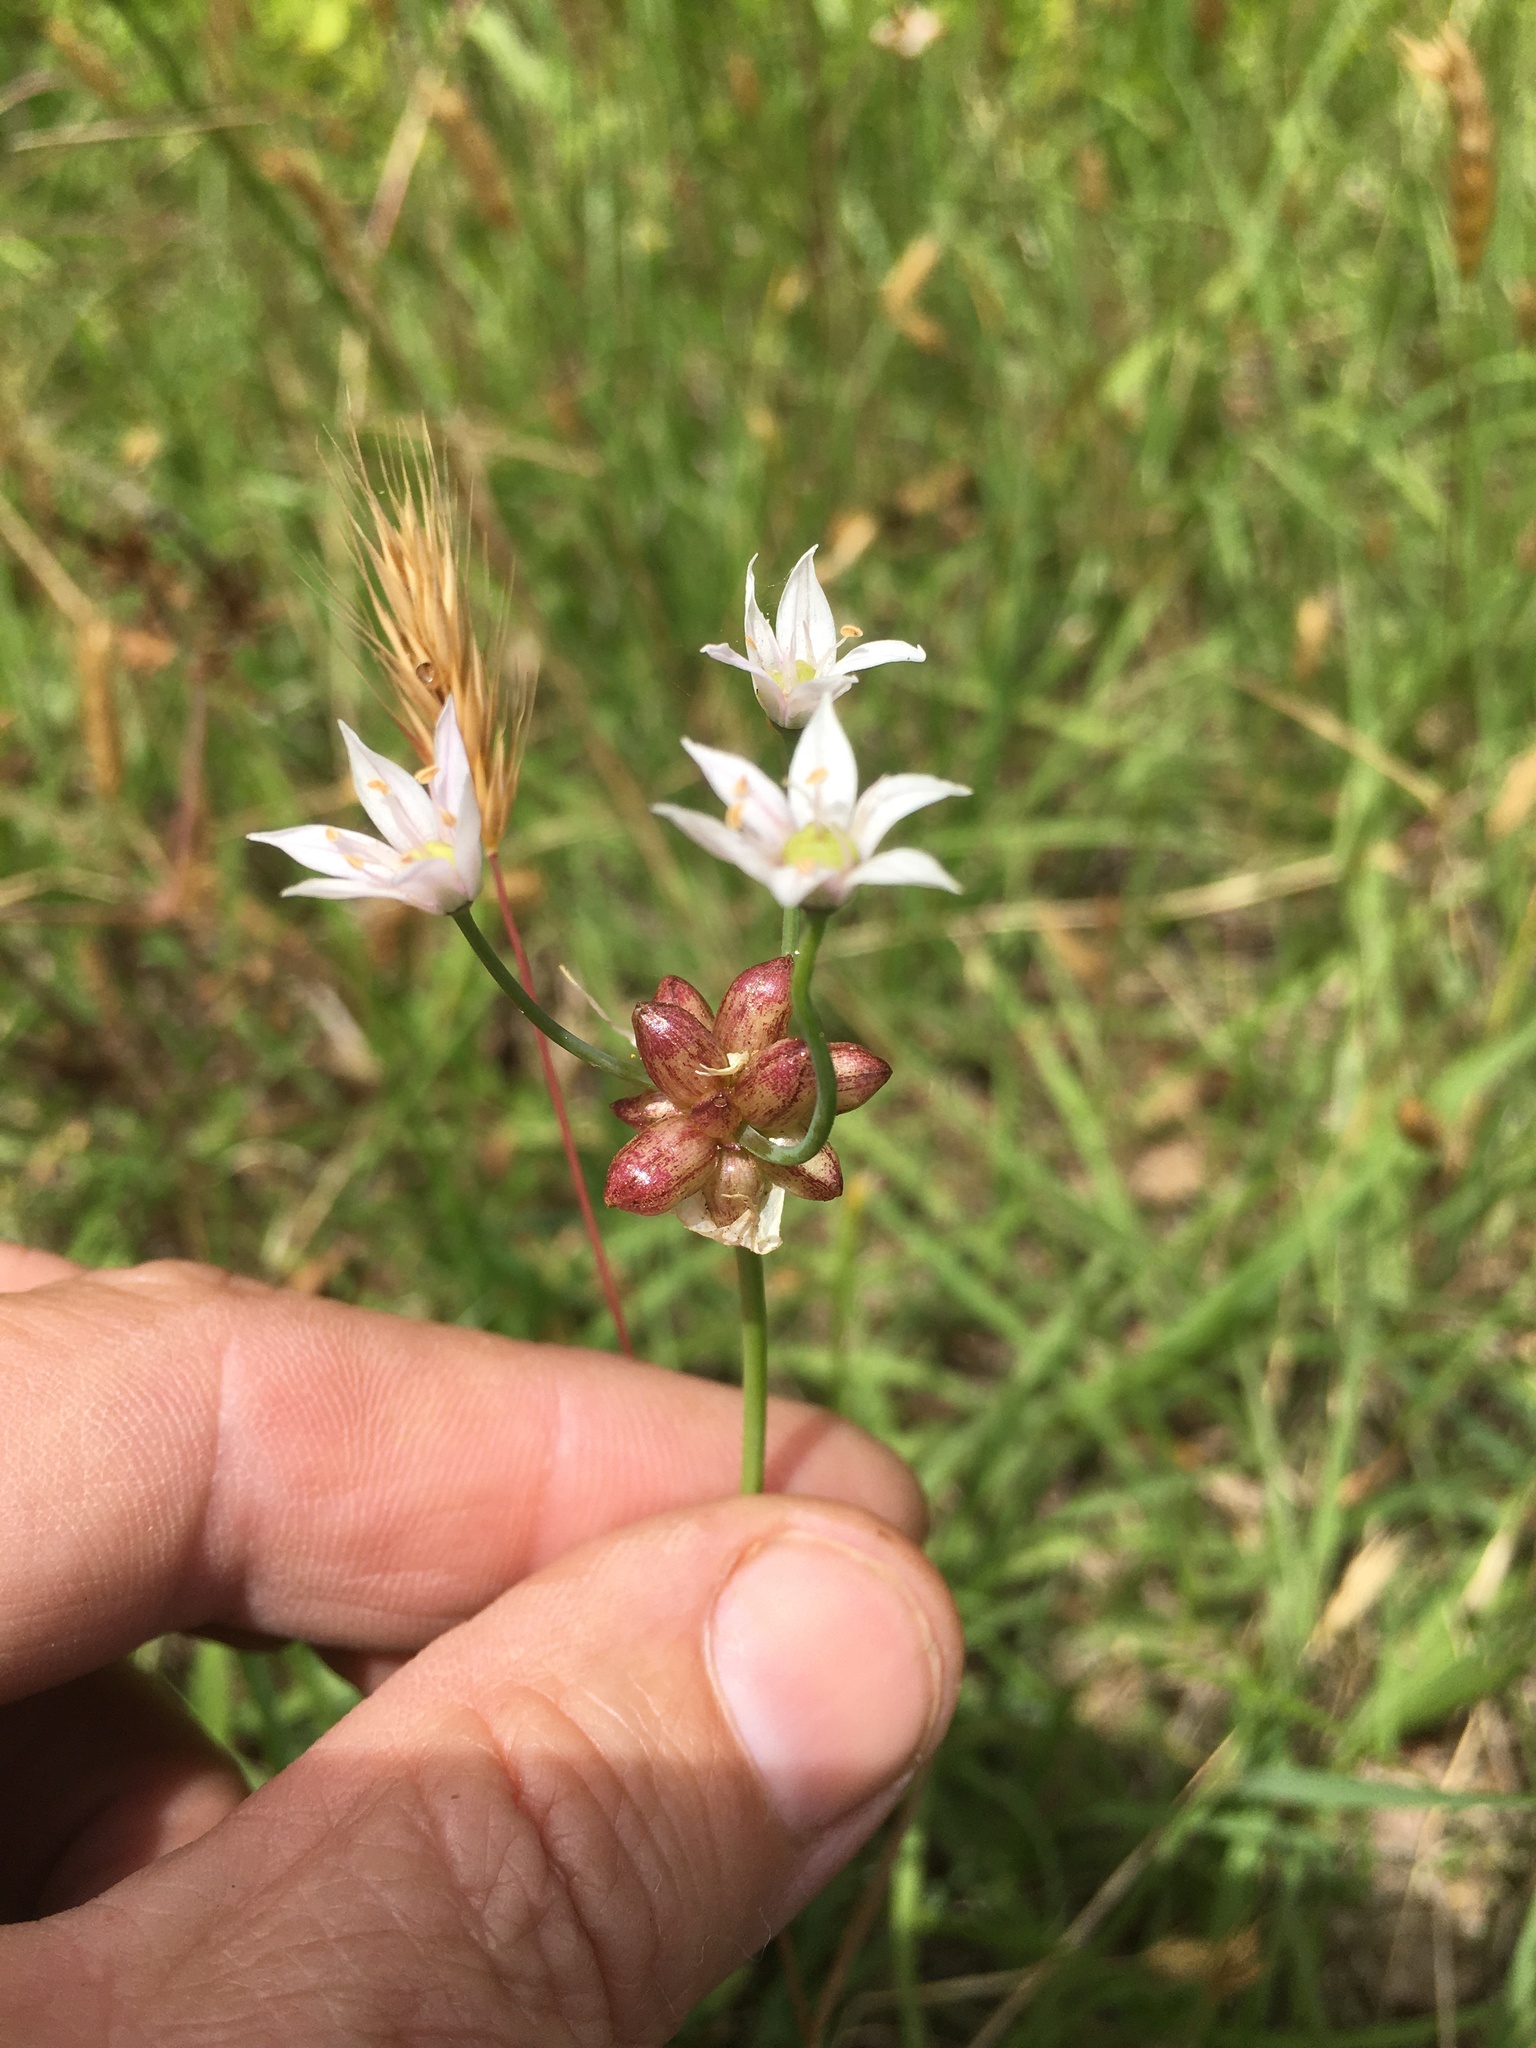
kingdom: Plantae
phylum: Tracheophyta
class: Liliopsida
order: Asparagales
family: Amaryllidaceae
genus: Allium
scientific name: Allium canadense
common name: Meadow garlic
